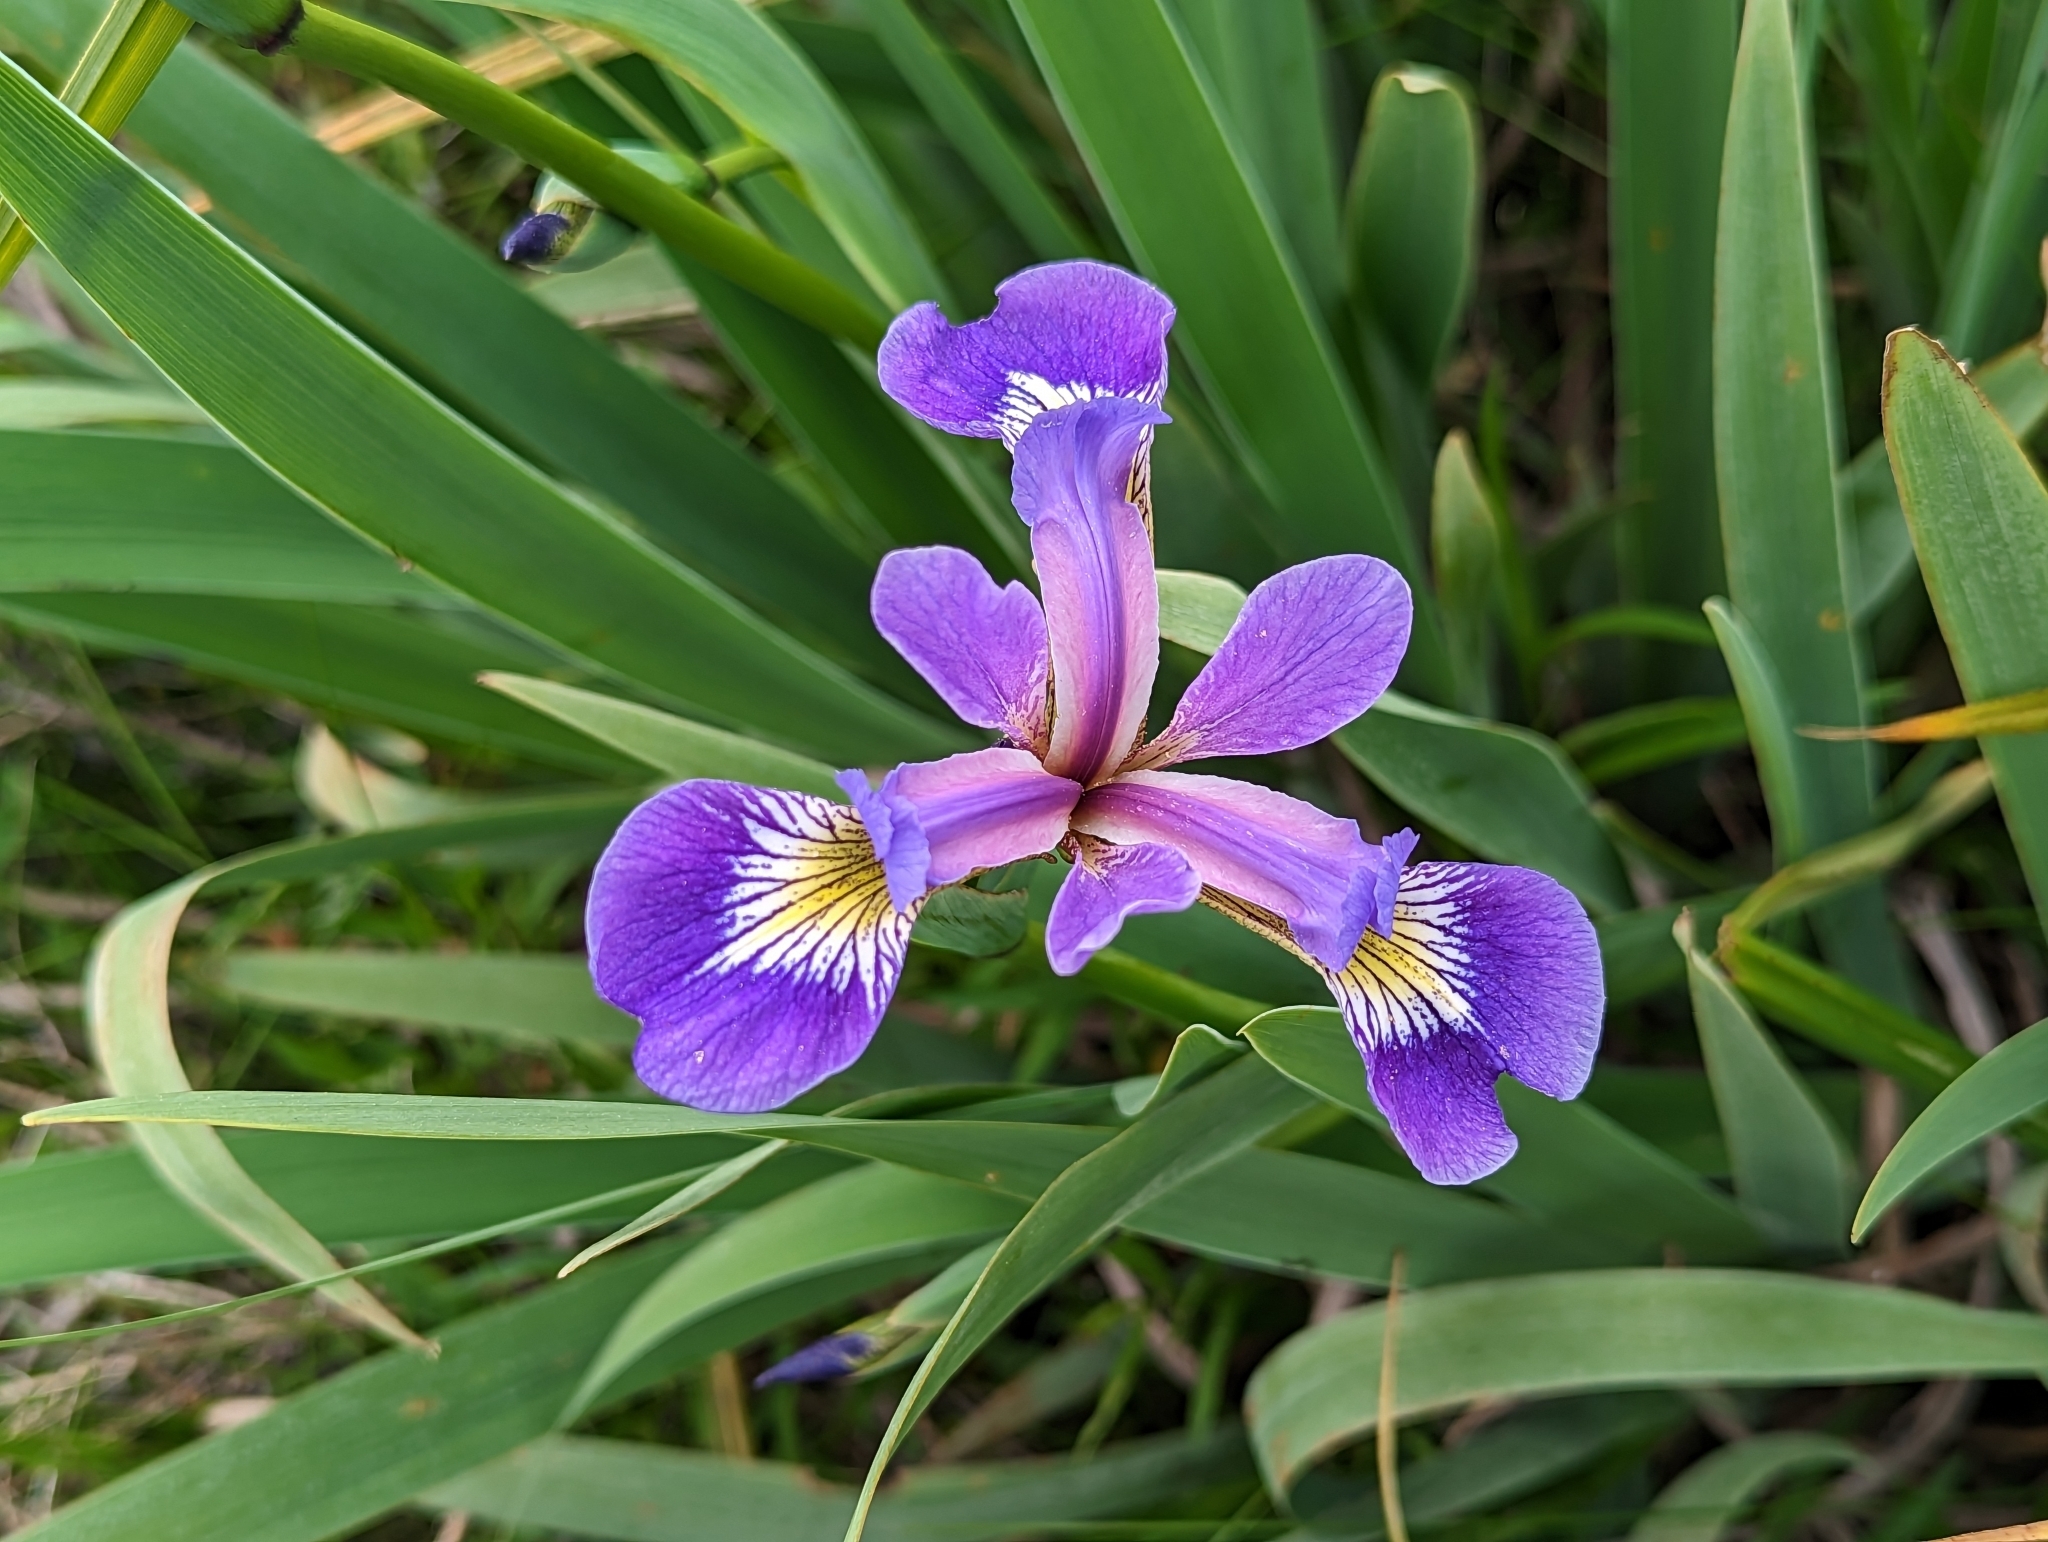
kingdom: Plantae
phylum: Tracheophyta
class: Liliopsida
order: Asparagales
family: Iridaceae
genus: Iris
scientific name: Iris versicolor
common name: Purple iris
